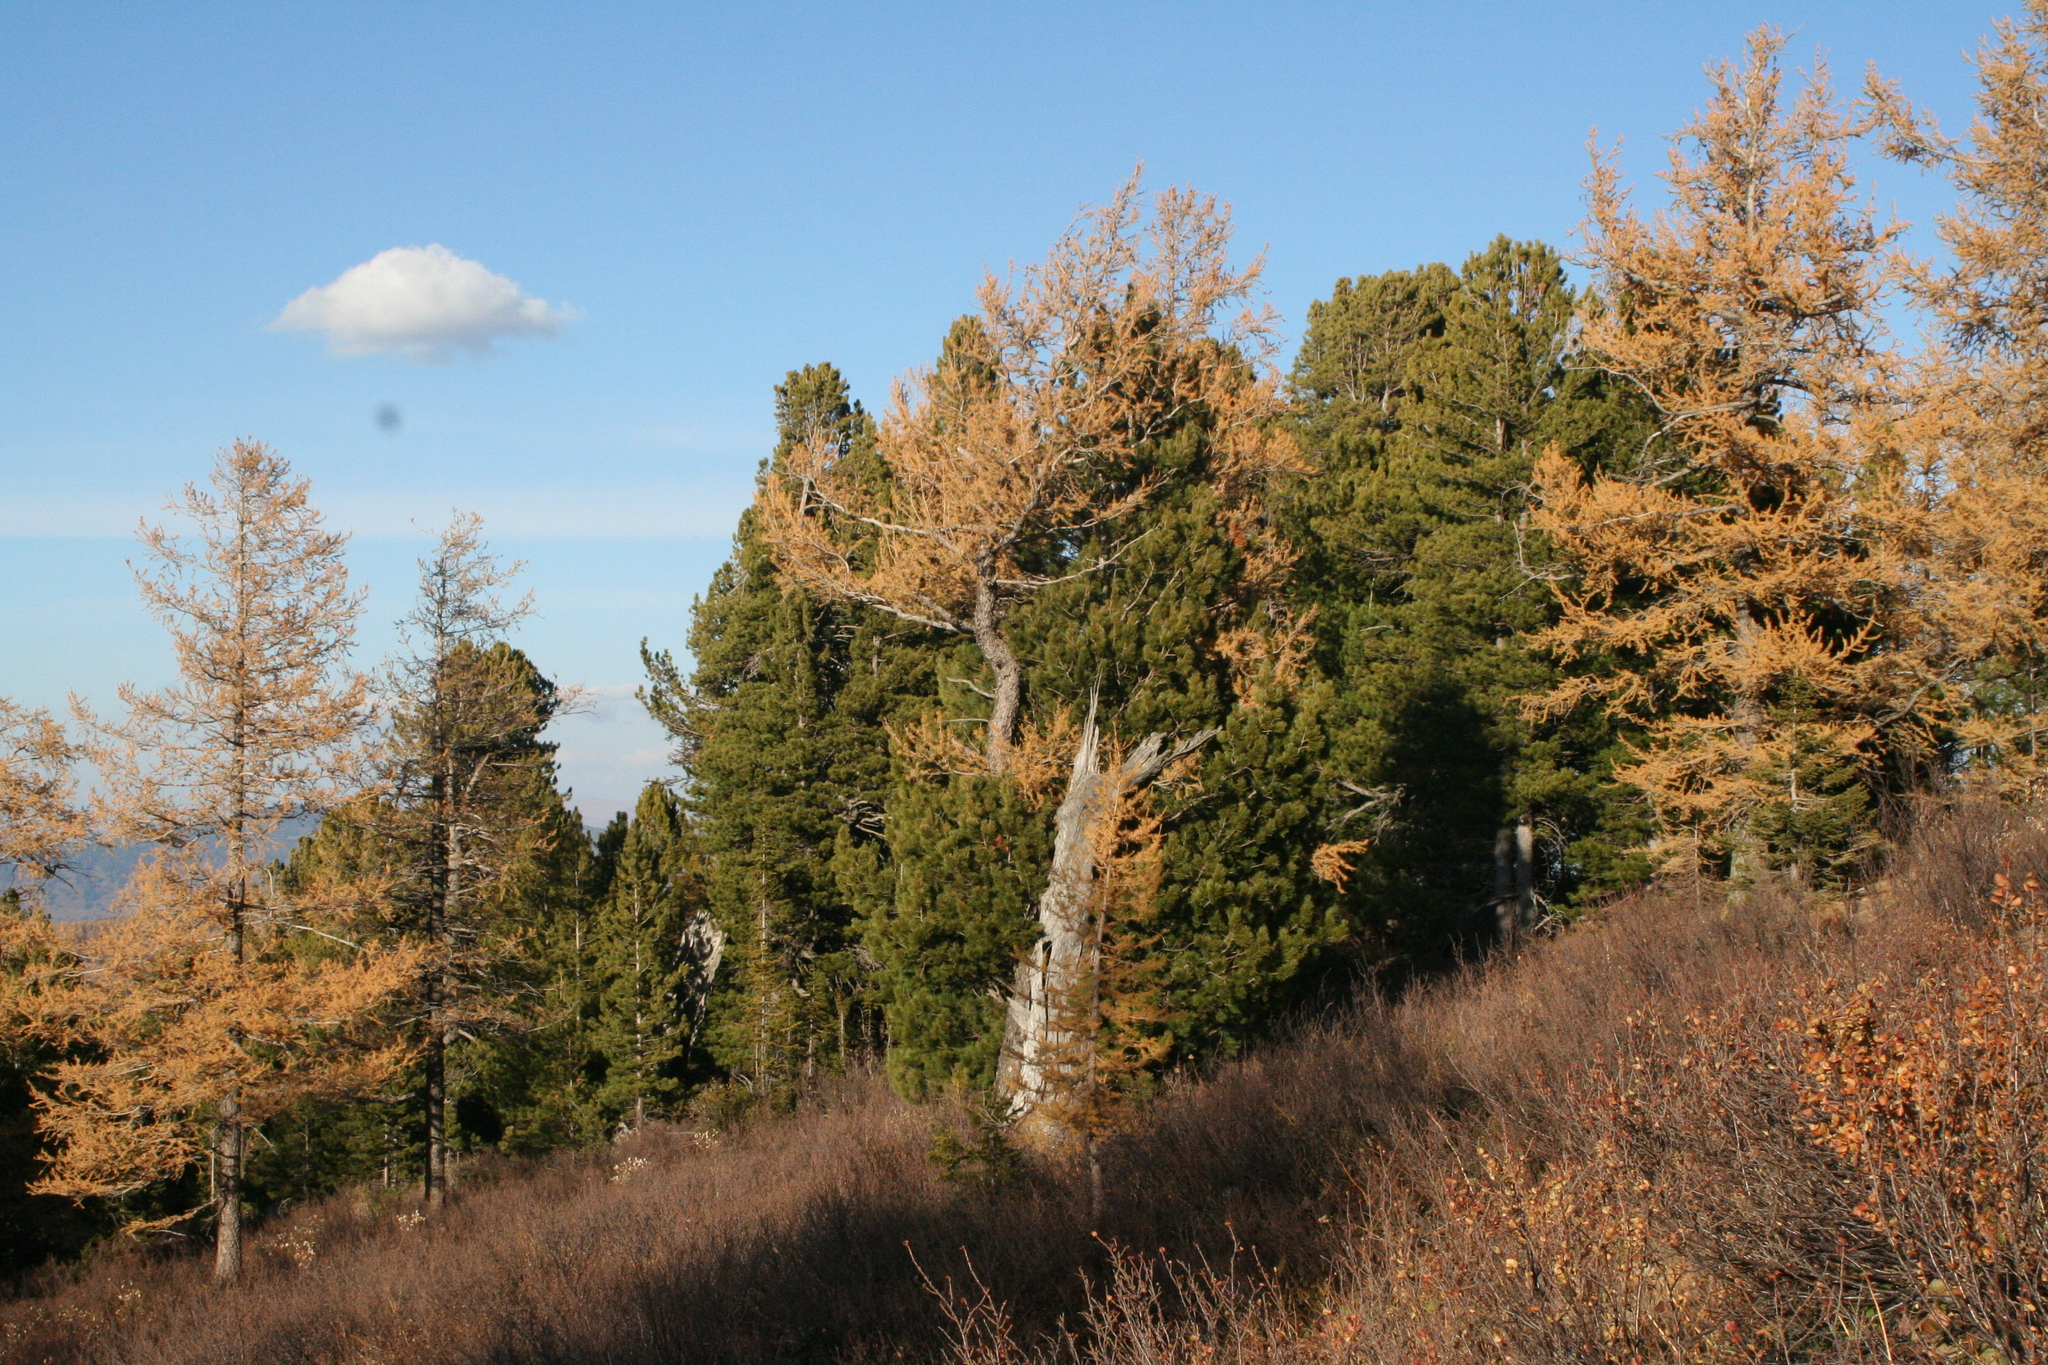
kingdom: Plantae
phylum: Tracheophyta
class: Pinopsida
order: Pinales
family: Pinaceae
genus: Pinus
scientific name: Pinus sibirica
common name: Siberian pine
